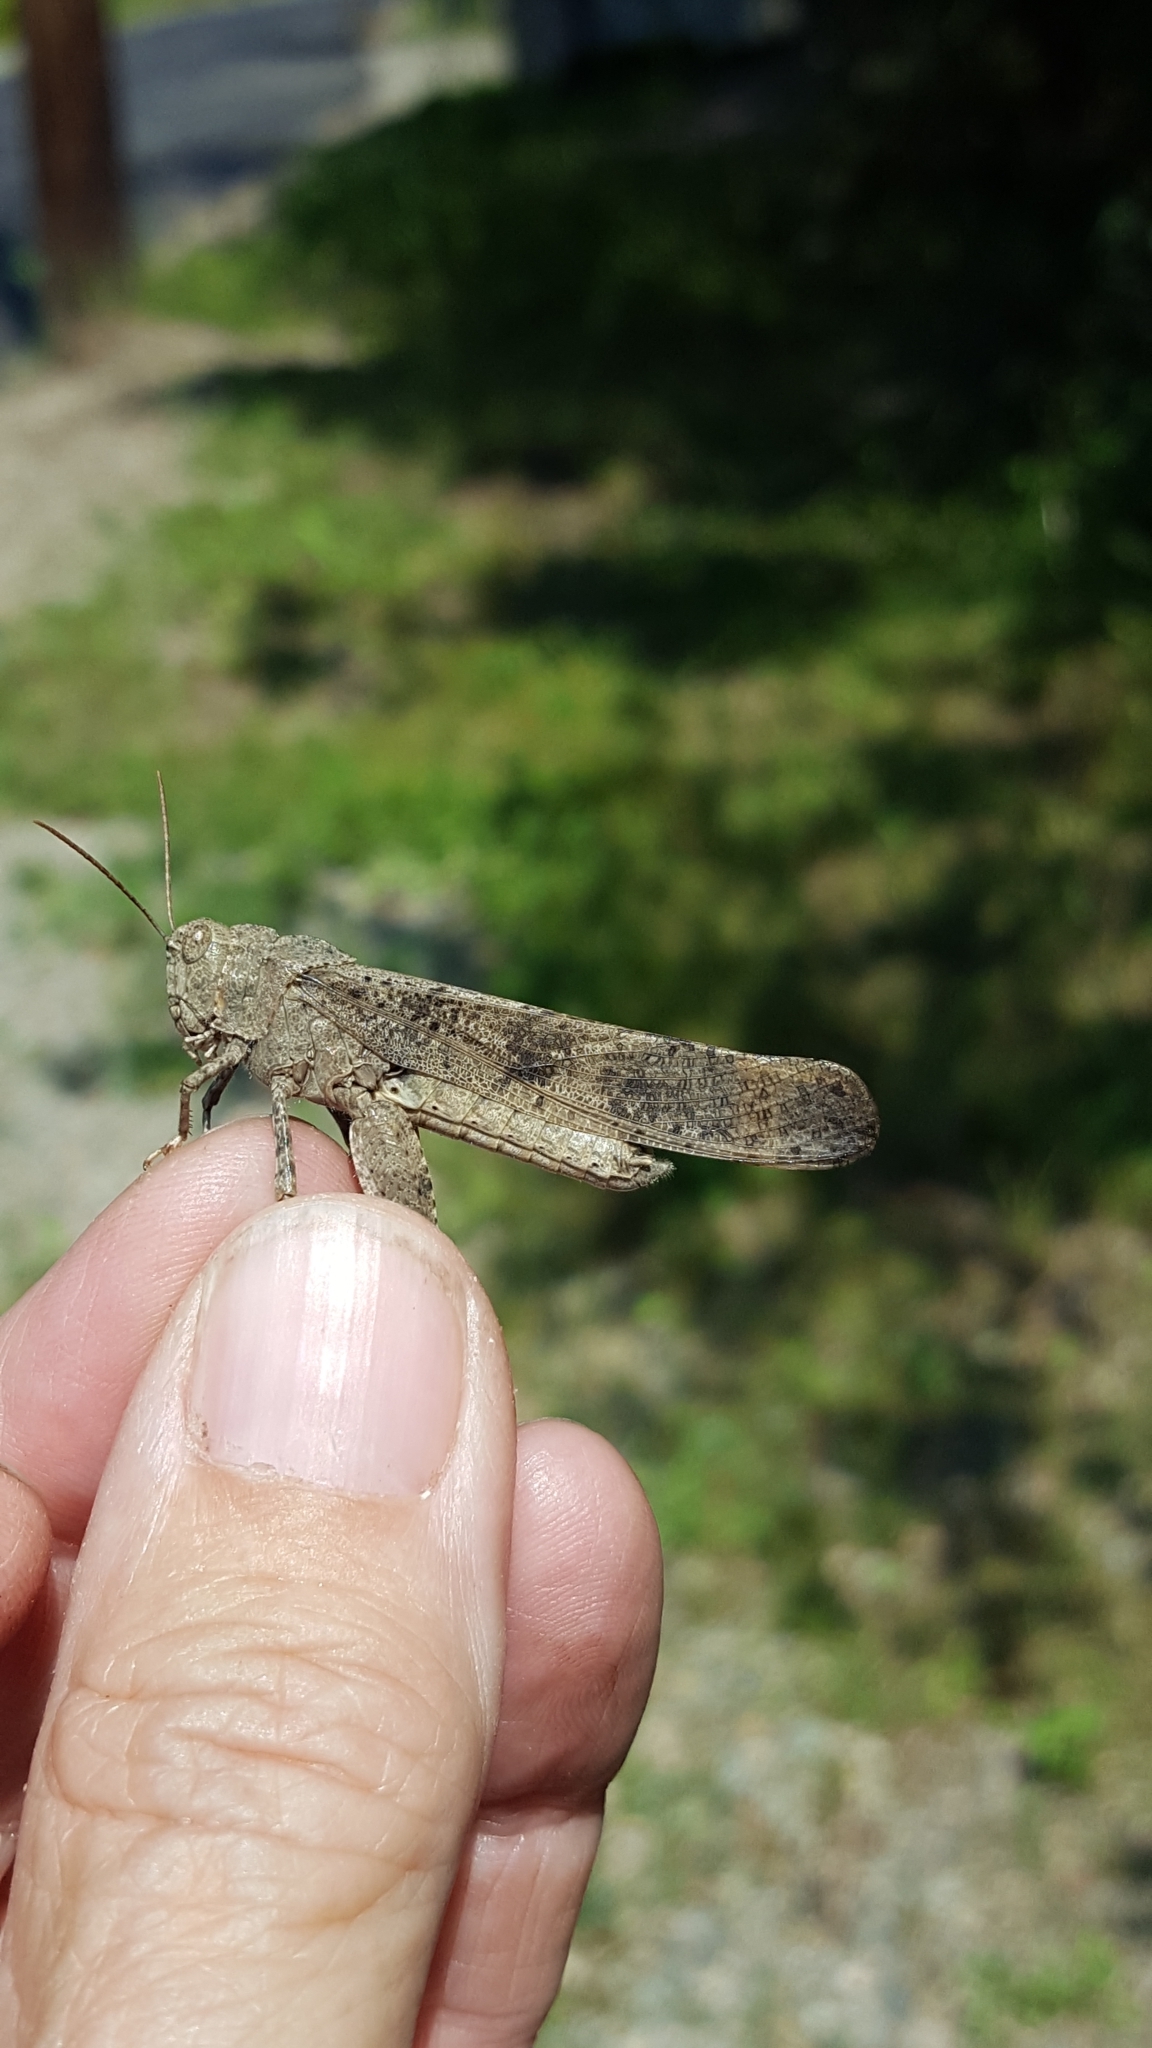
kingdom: Animalia
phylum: Arthropoda
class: Insecta
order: Orthoptera
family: Acrididae
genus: Dissosteira
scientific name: Dissosteira carolina
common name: Carolina grasshopper
